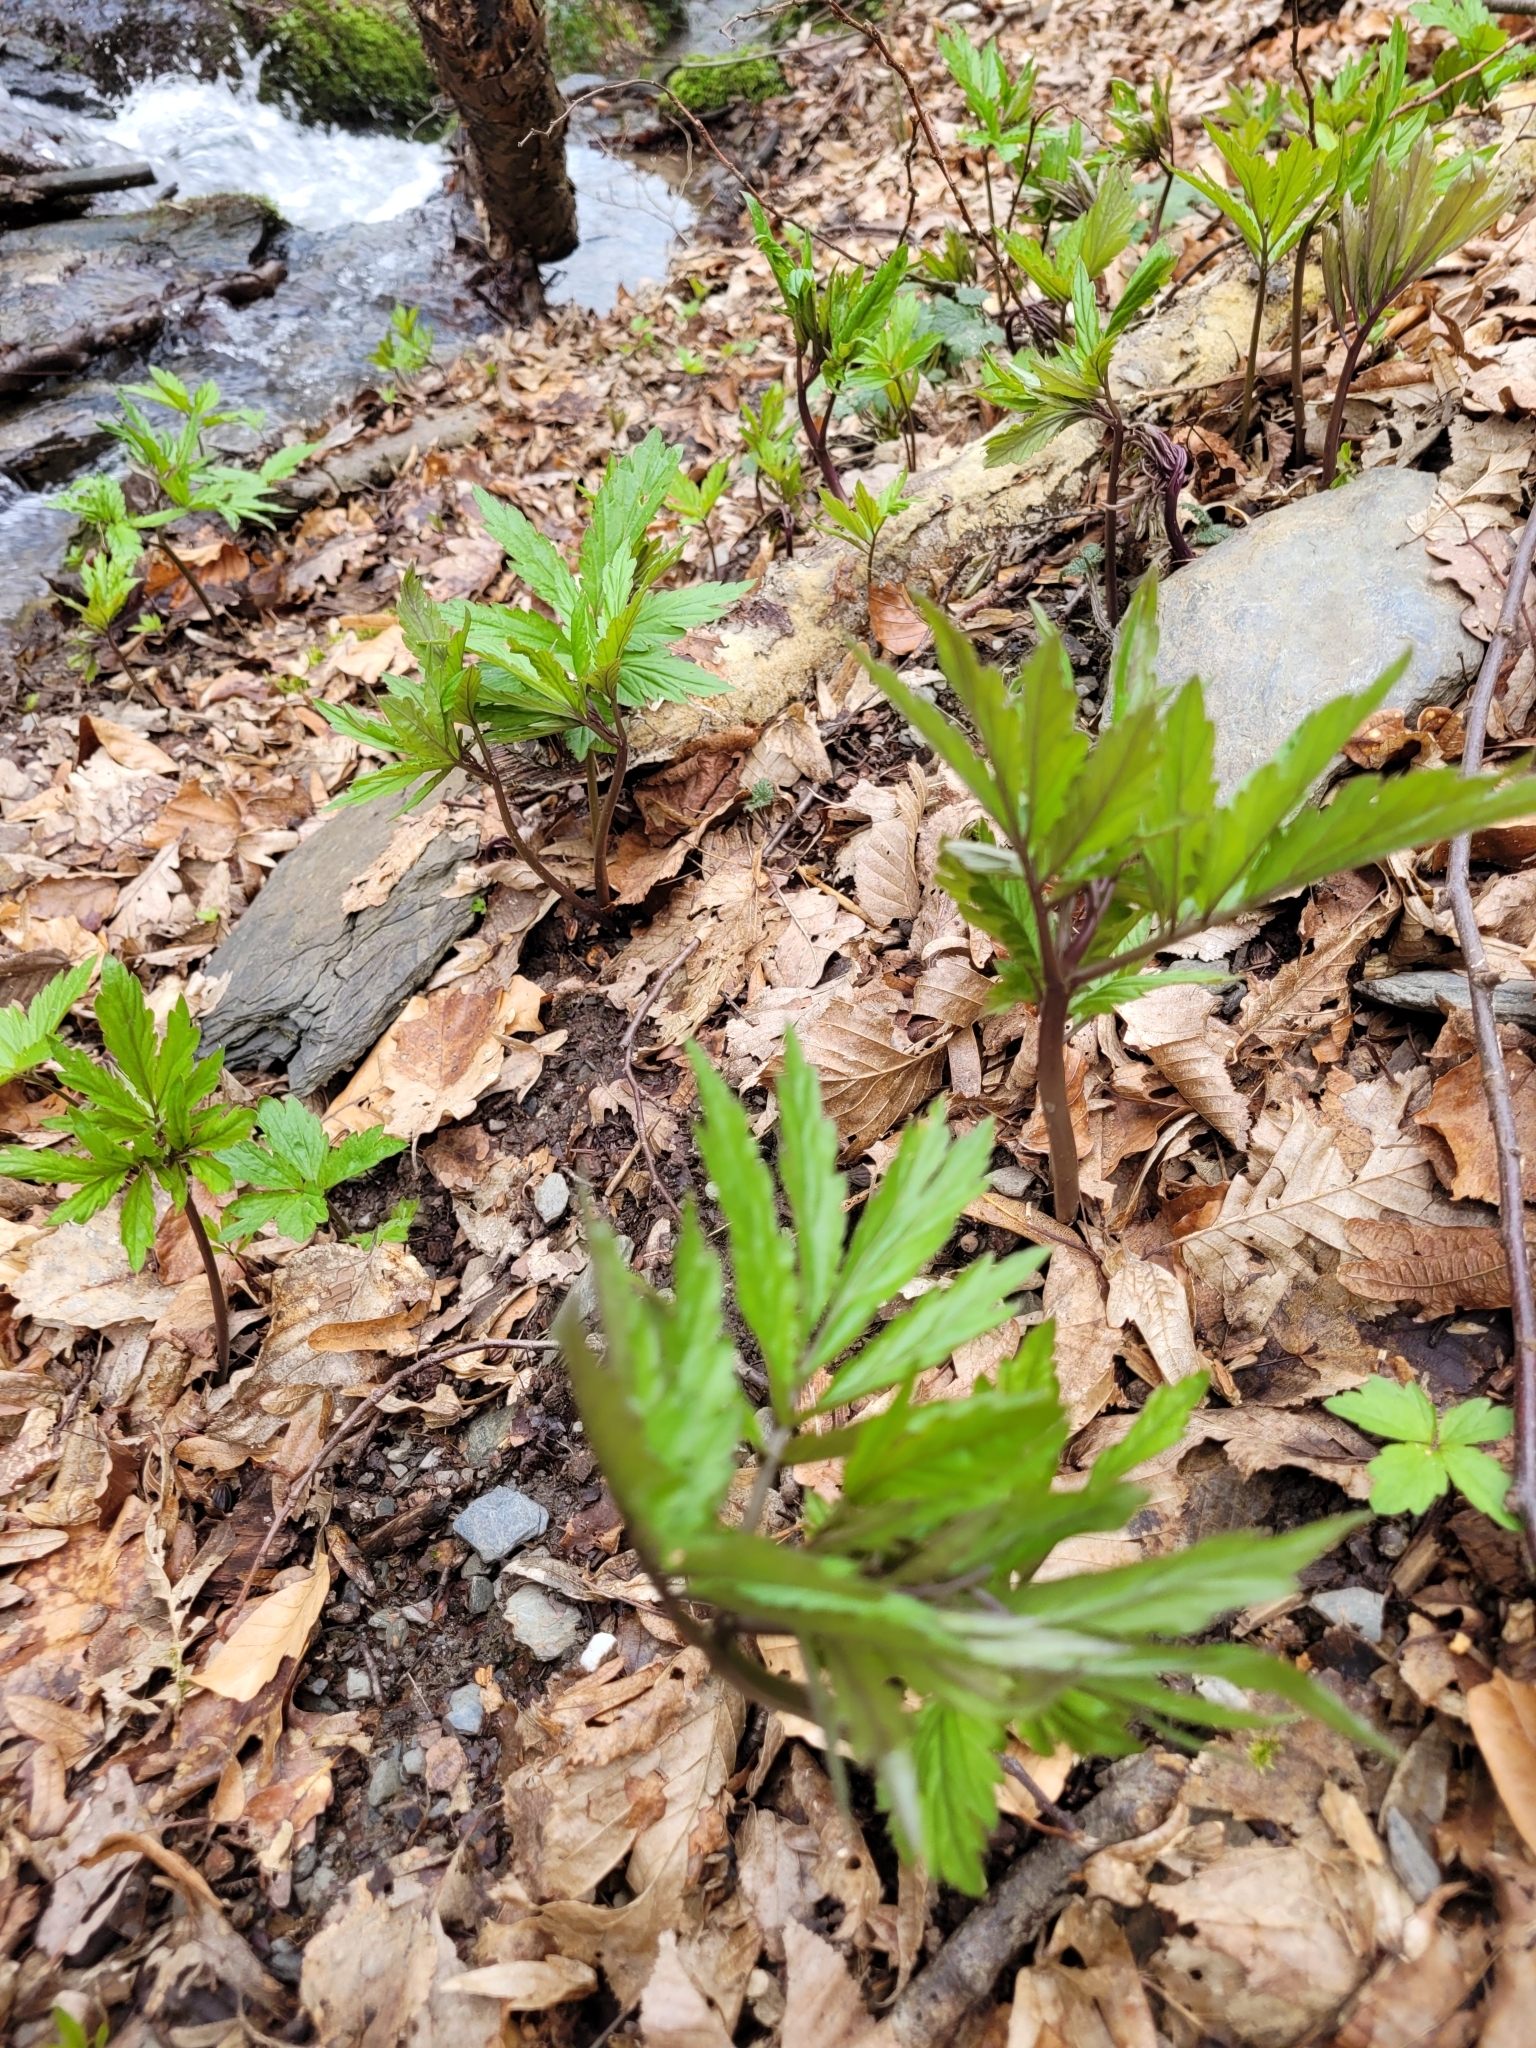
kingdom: Plantae
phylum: Tracheophyta
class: Magnoliopsida
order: Brassicales
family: Brassicaceae
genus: Cardamine
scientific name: Cardamine bulbifera
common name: Coralroot bittercress
